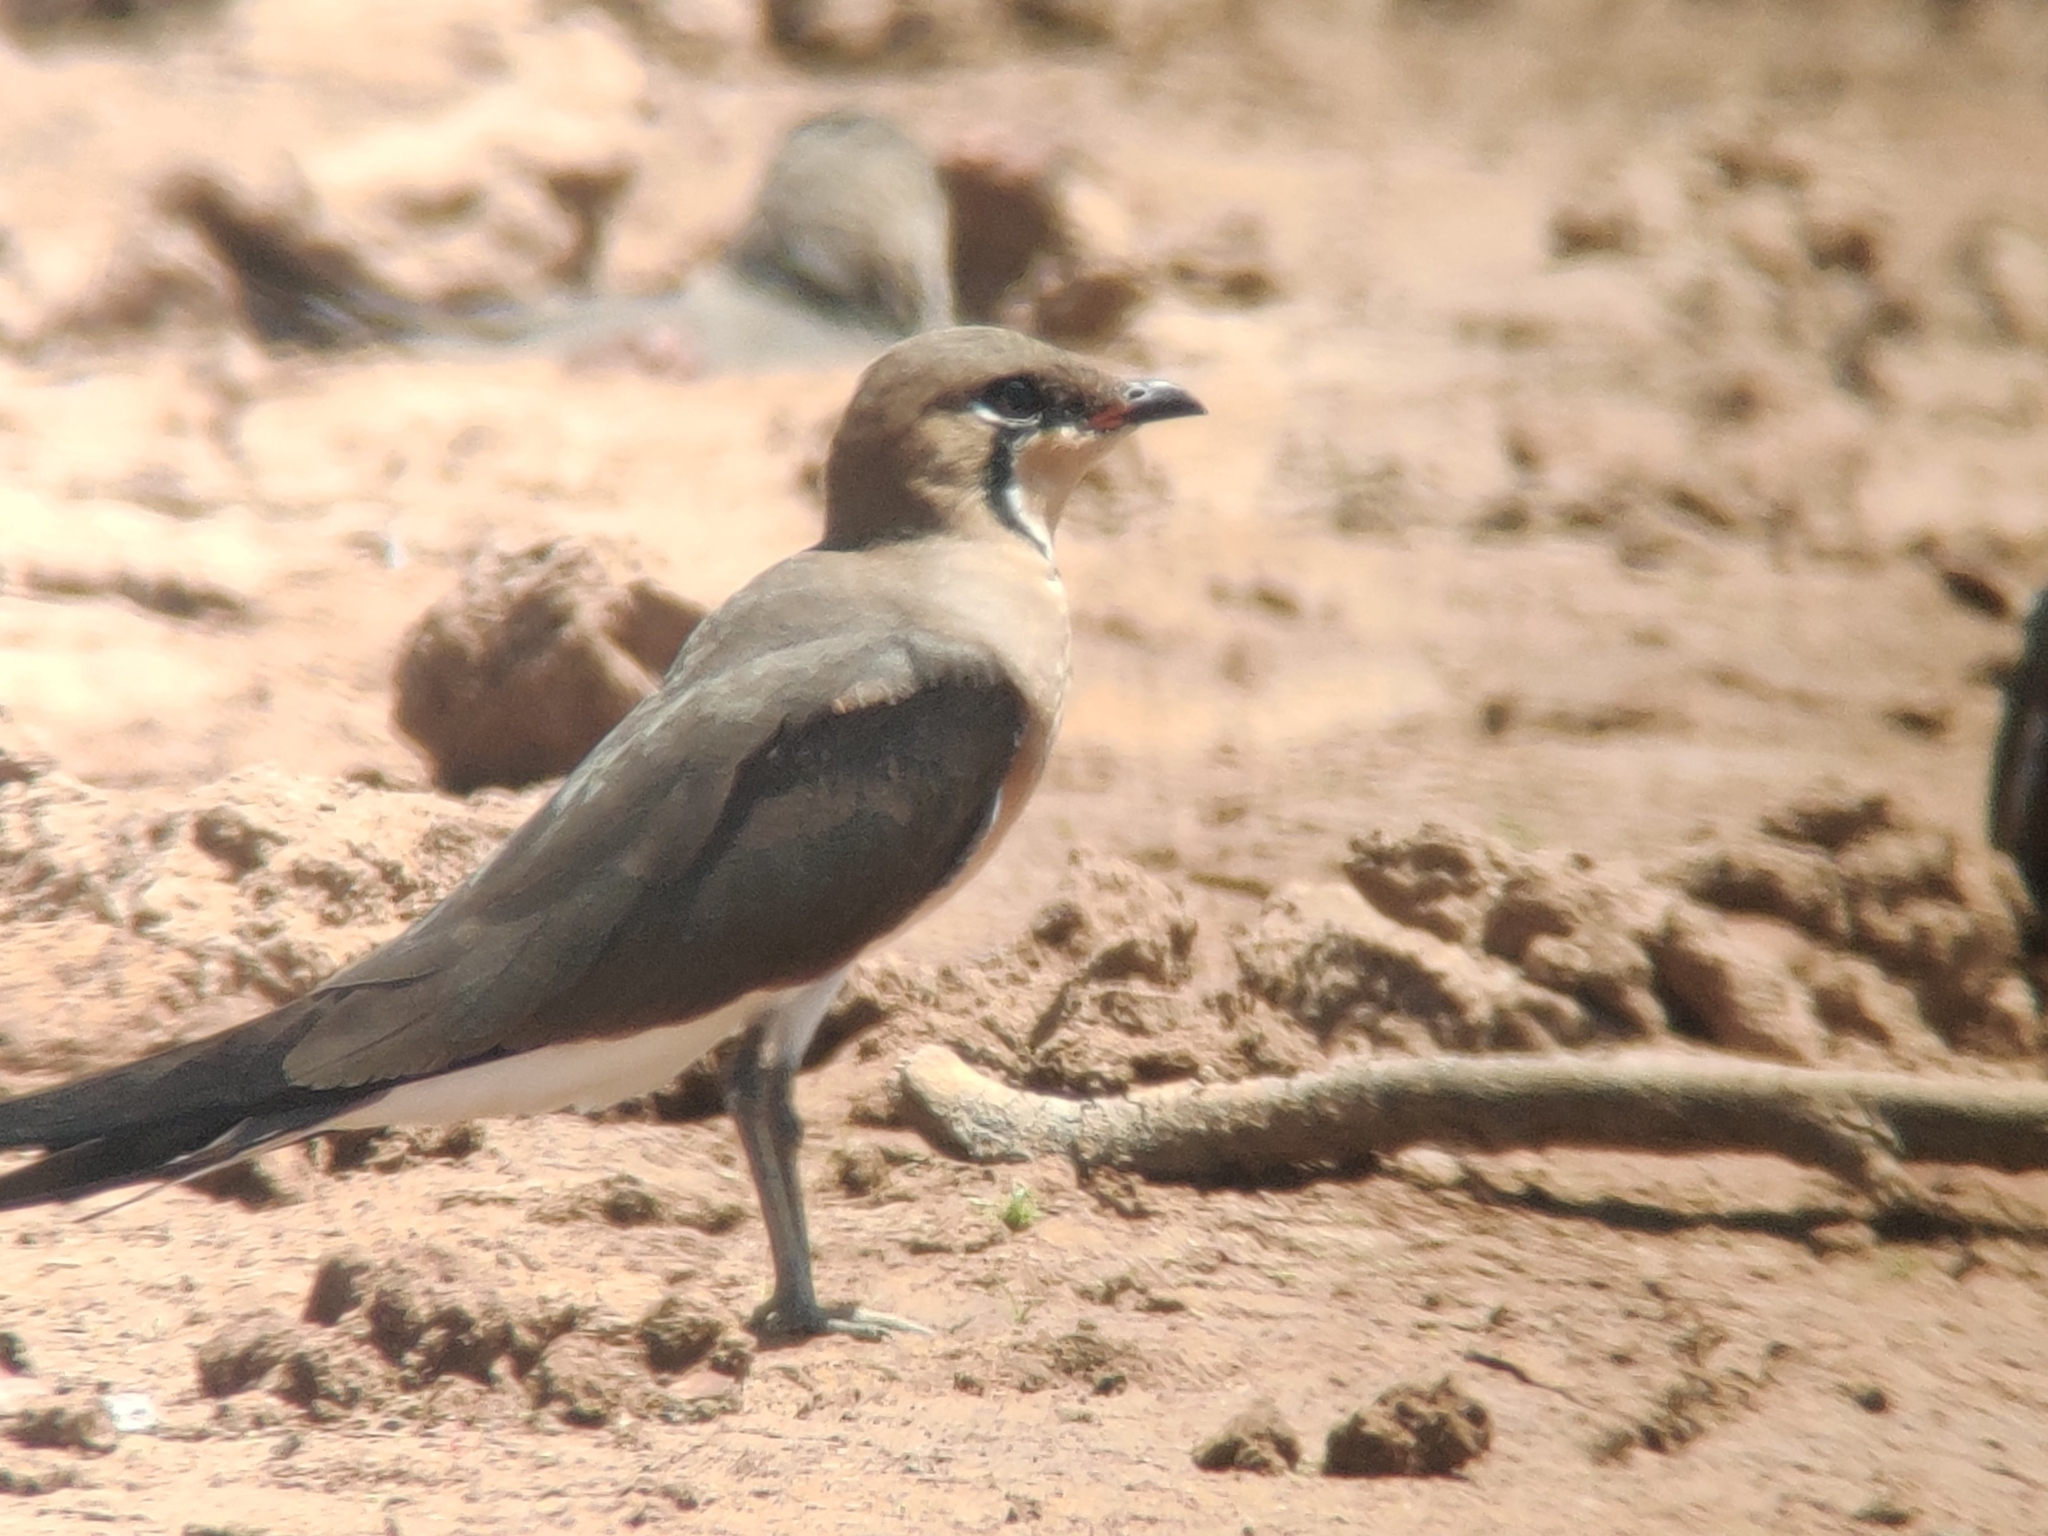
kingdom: Animalia
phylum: Chordata
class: Aves
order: Charadriiformes
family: Glareolidae
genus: Glareola
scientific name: Glareola maldivarum
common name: Oriental pratincole
